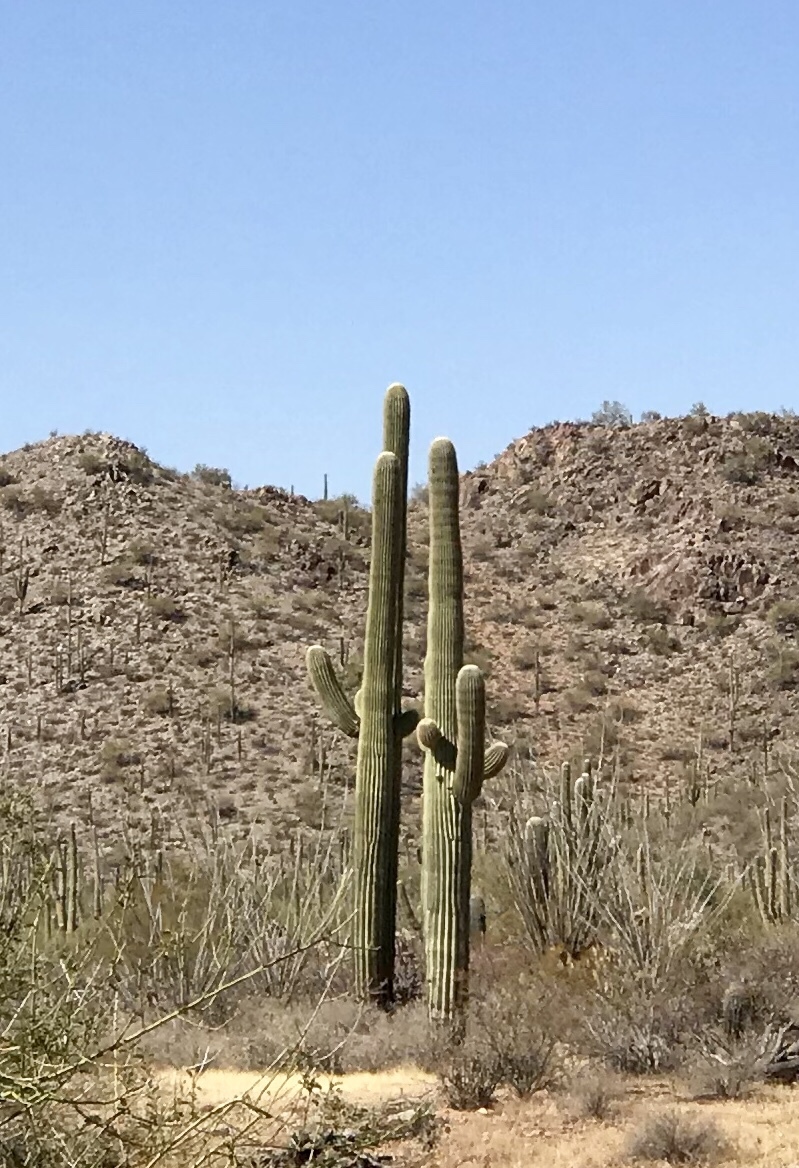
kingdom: Plantae
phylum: Tracheophyta
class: Magnoliopsida
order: Caryophyllales
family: Cactaceae
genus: Carnegiea
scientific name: Carnegiea gigantea
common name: Saguaro
